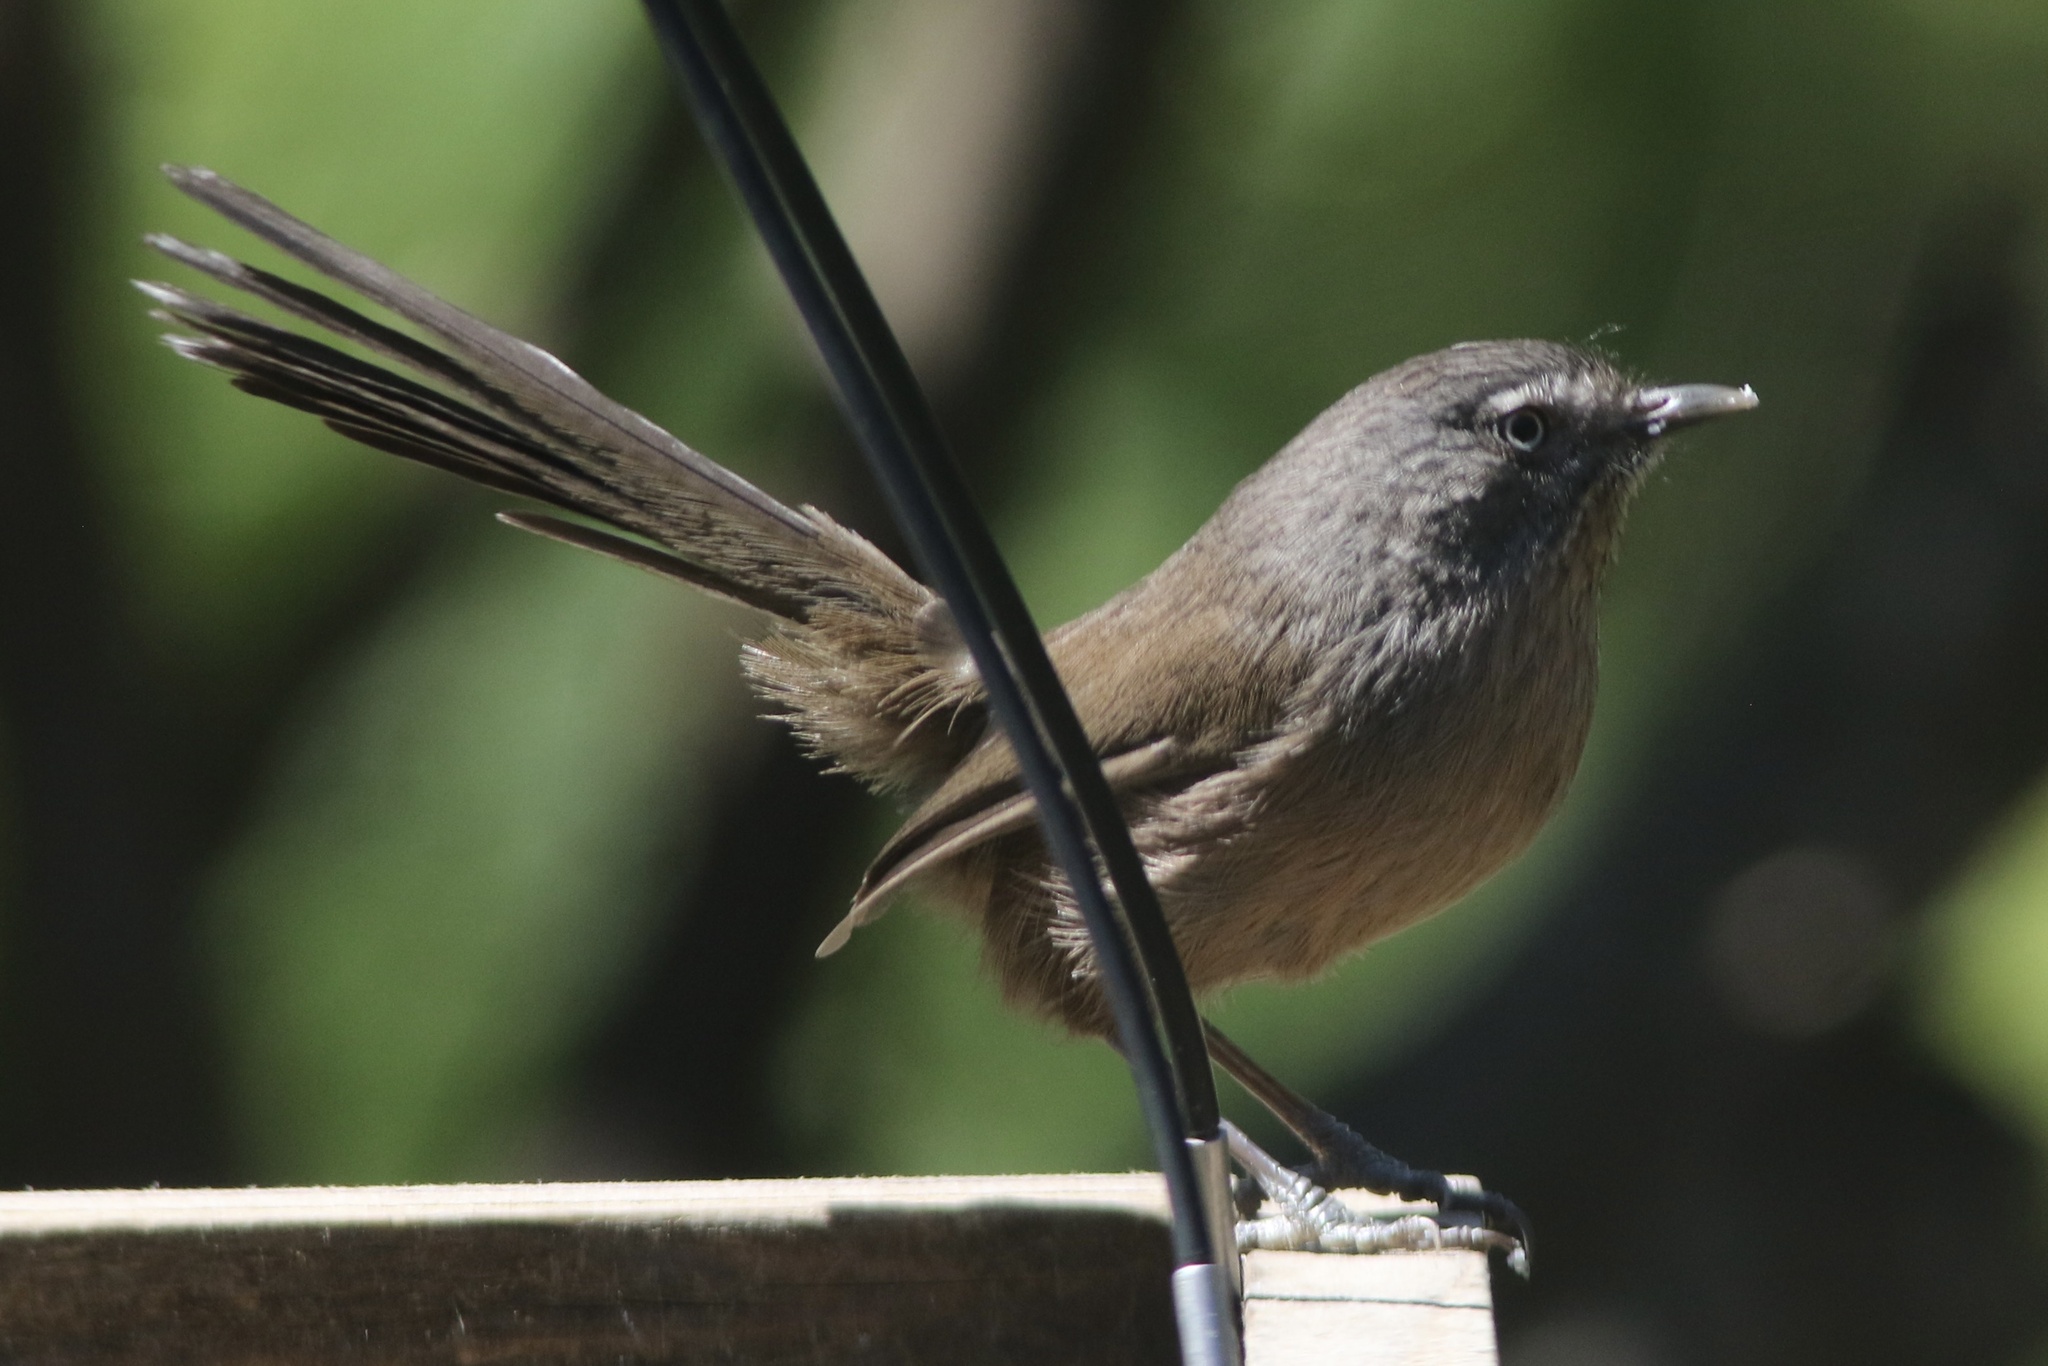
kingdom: Animalia
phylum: Chordata
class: Aves
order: Passeriformes
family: Sylviidae
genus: Chamaea
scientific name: Chamaea fasciata
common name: Wrentit
